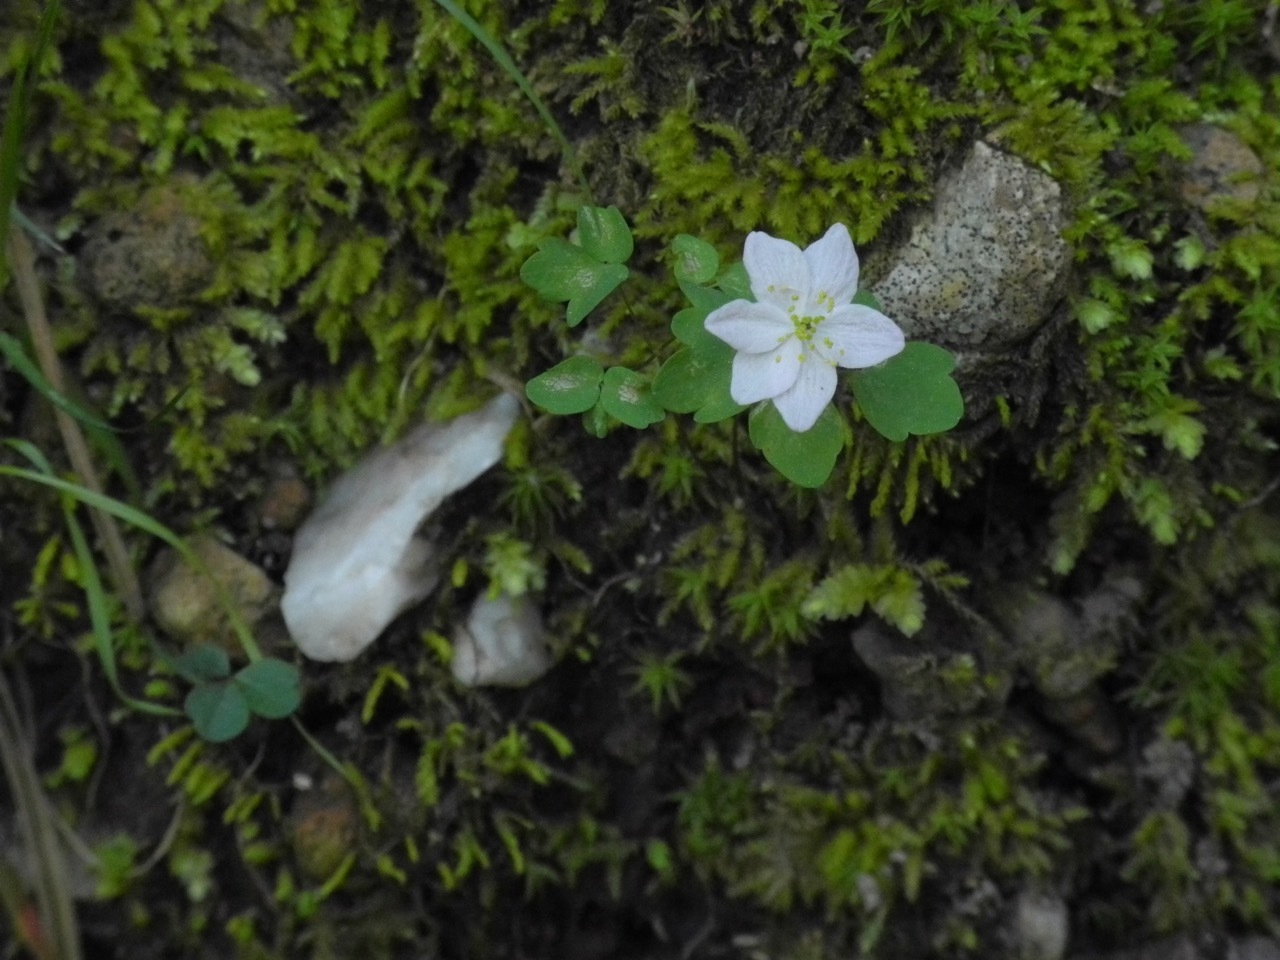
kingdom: Plantae
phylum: Tracheophyta
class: Magnoliopsida
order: Ranunculales
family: Ranunculaceae
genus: Thalictrum
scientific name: Thalictrum thalictroides
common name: Rue-anemone
